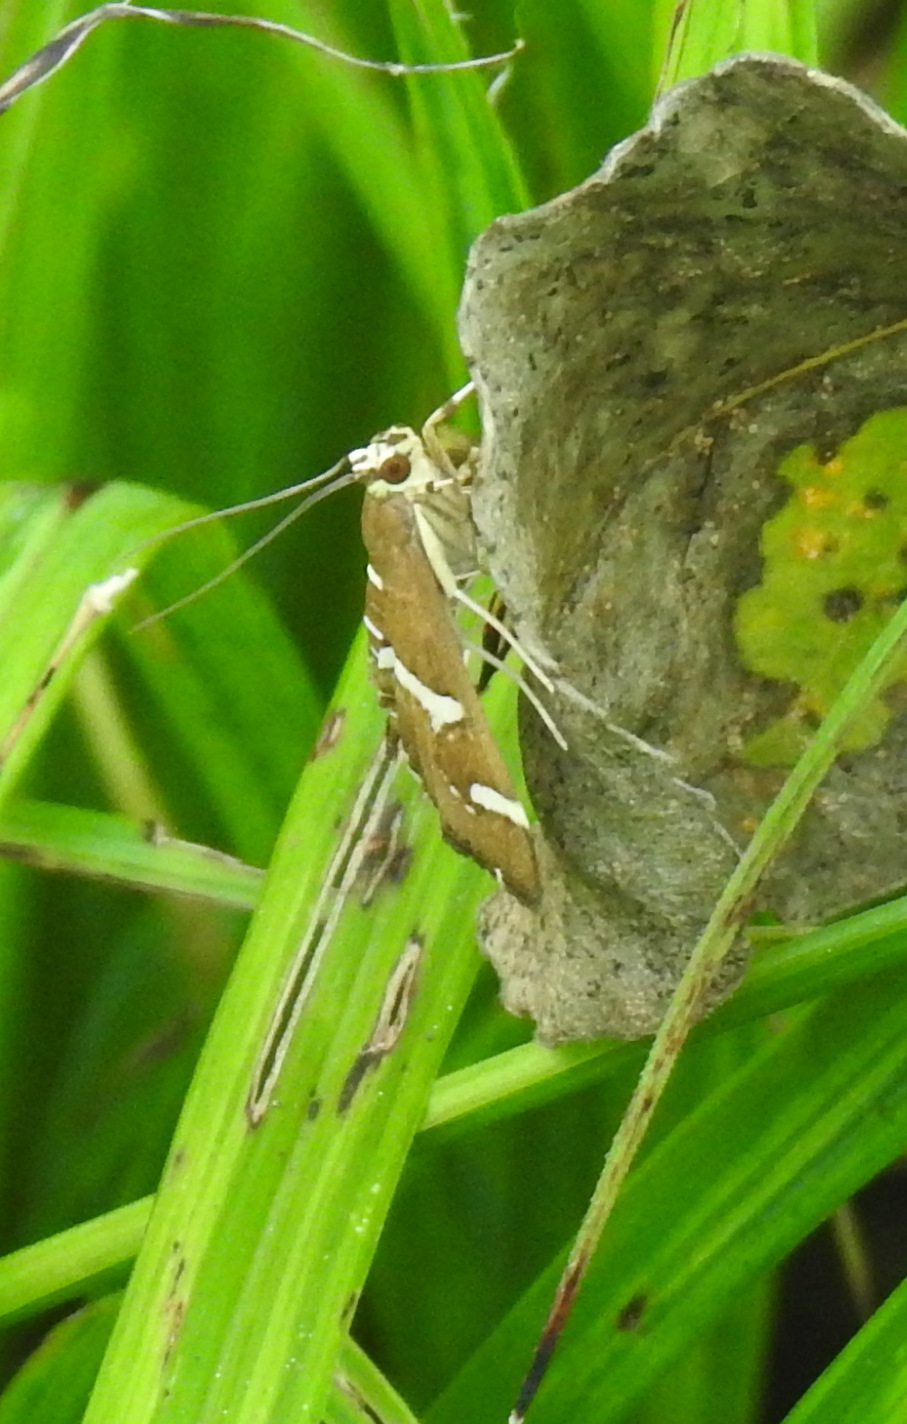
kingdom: Animalia
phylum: Arthropoda
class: Insecta
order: Lepidoptera
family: Crambidae
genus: Spoladea
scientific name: Spoladea recurvalis
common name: Beet webworm moth
